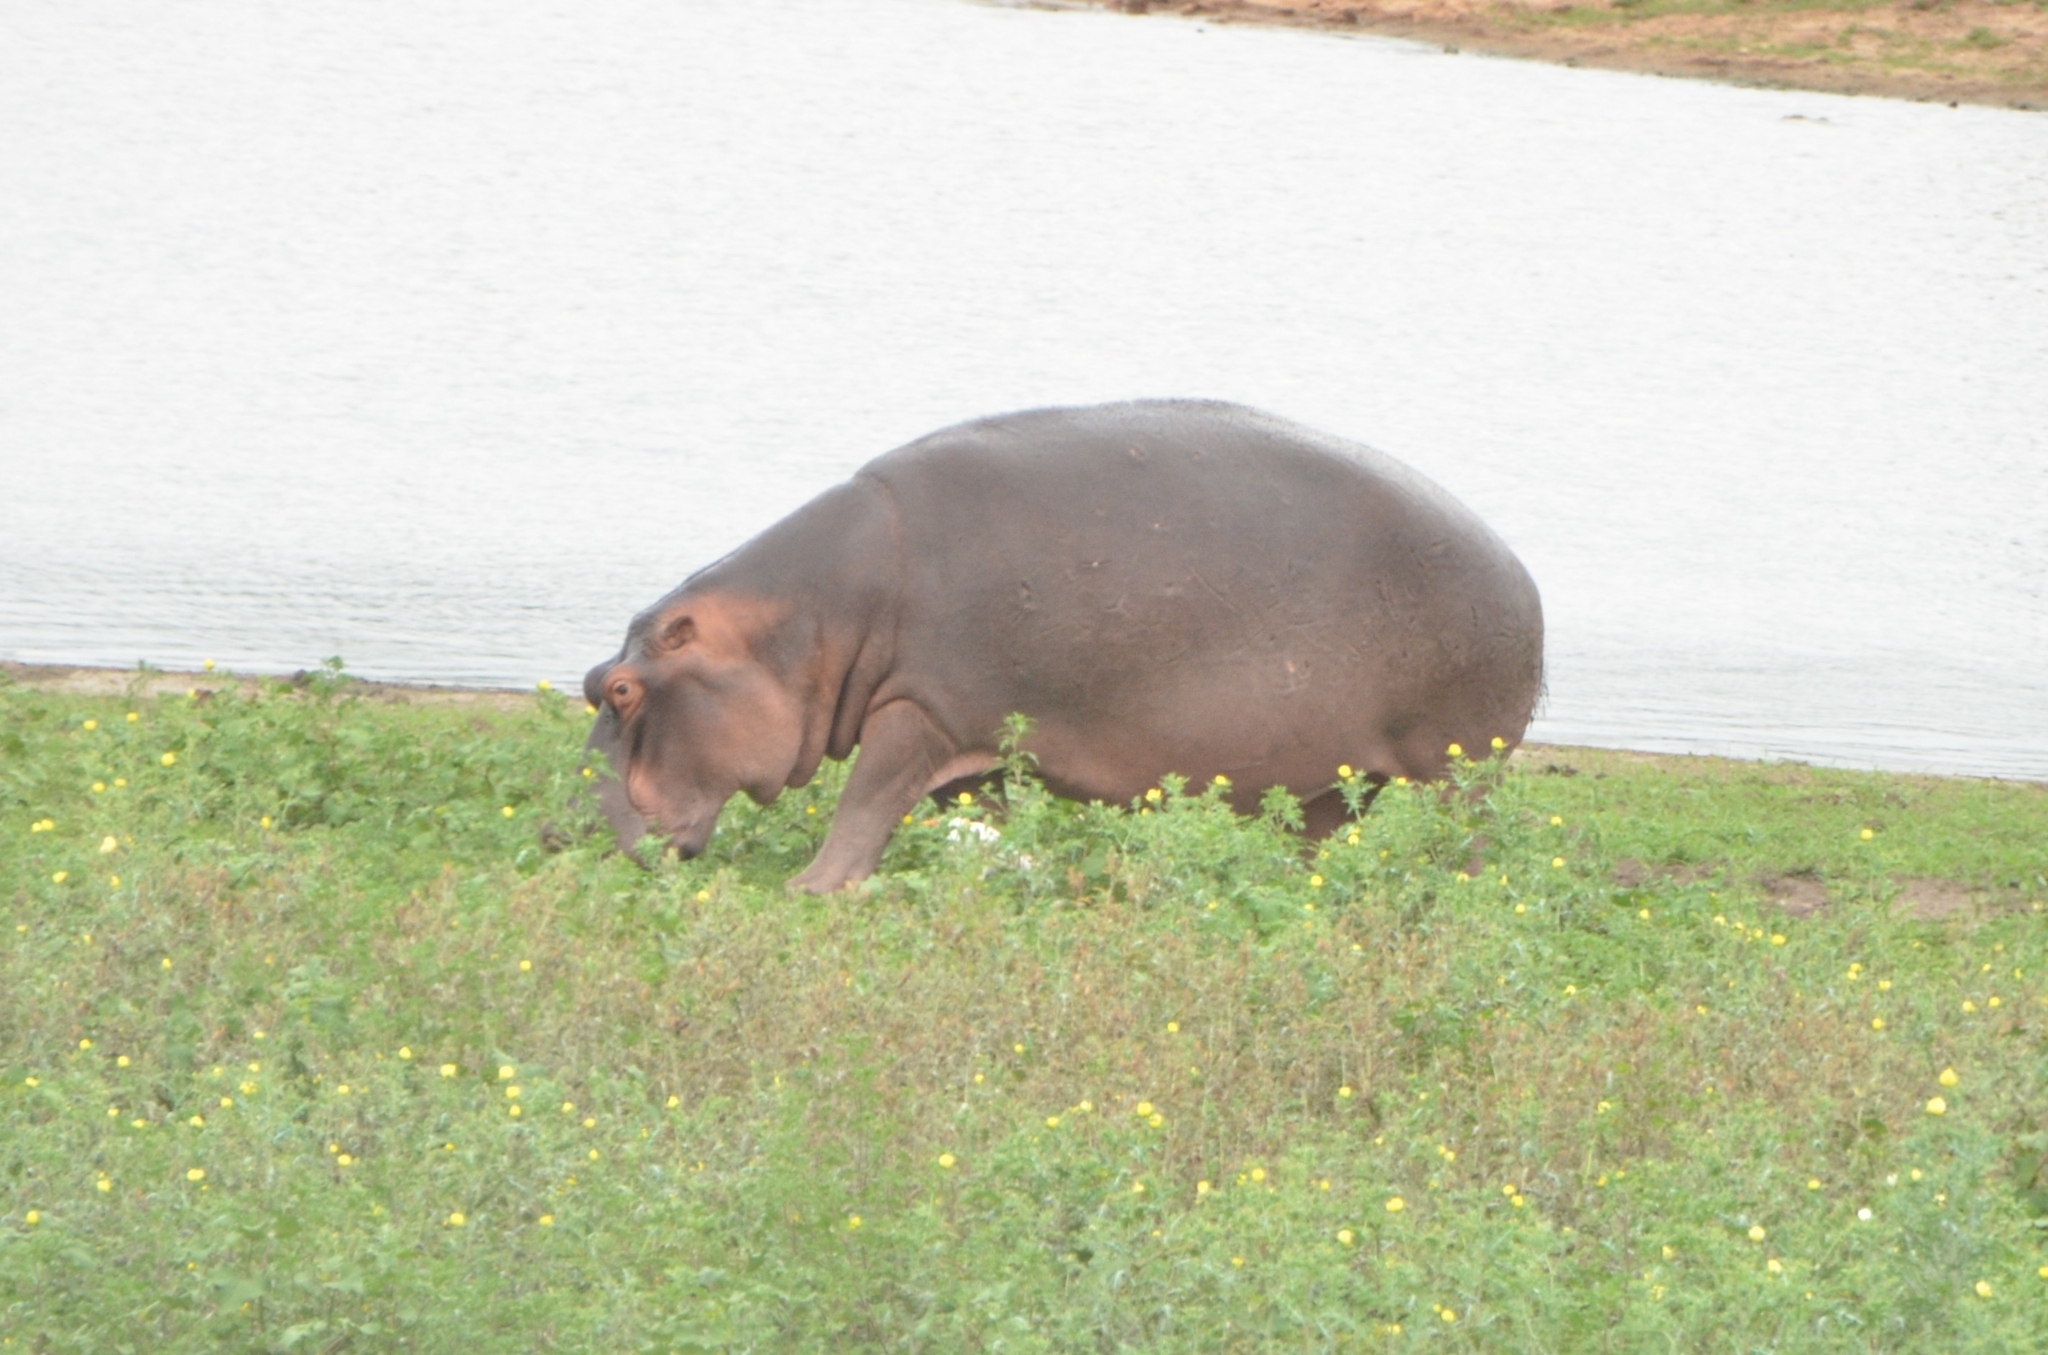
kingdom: Animalia
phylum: Chordata
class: Mammalia
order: Artiodactyla
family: Hippopotamidae
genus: Hippopotamus
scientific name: Hippopotamus amphibius
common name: Common hippopotamus
